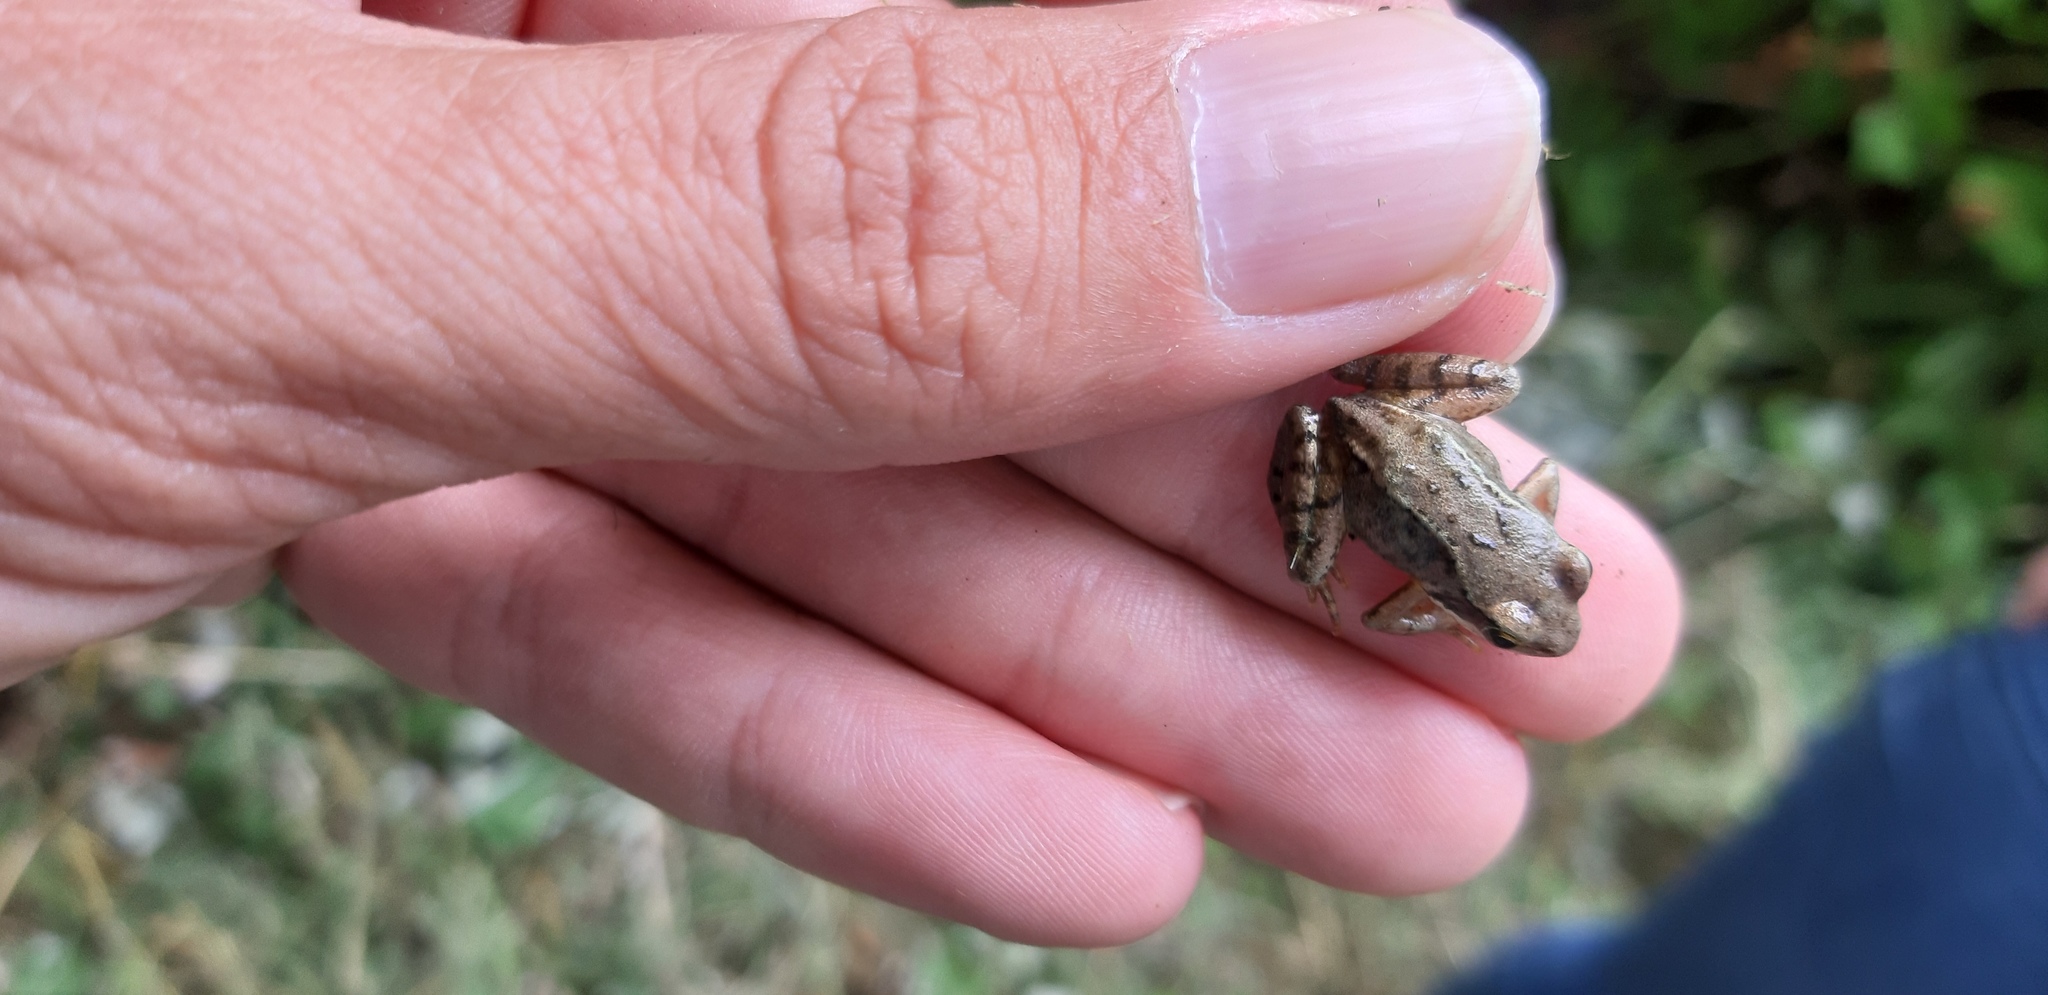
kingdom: Animalia
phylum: Chordata
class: Amphibia
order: Anura
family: Ranidae
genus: Rana
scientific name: Rana temporaria
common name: Common frog
